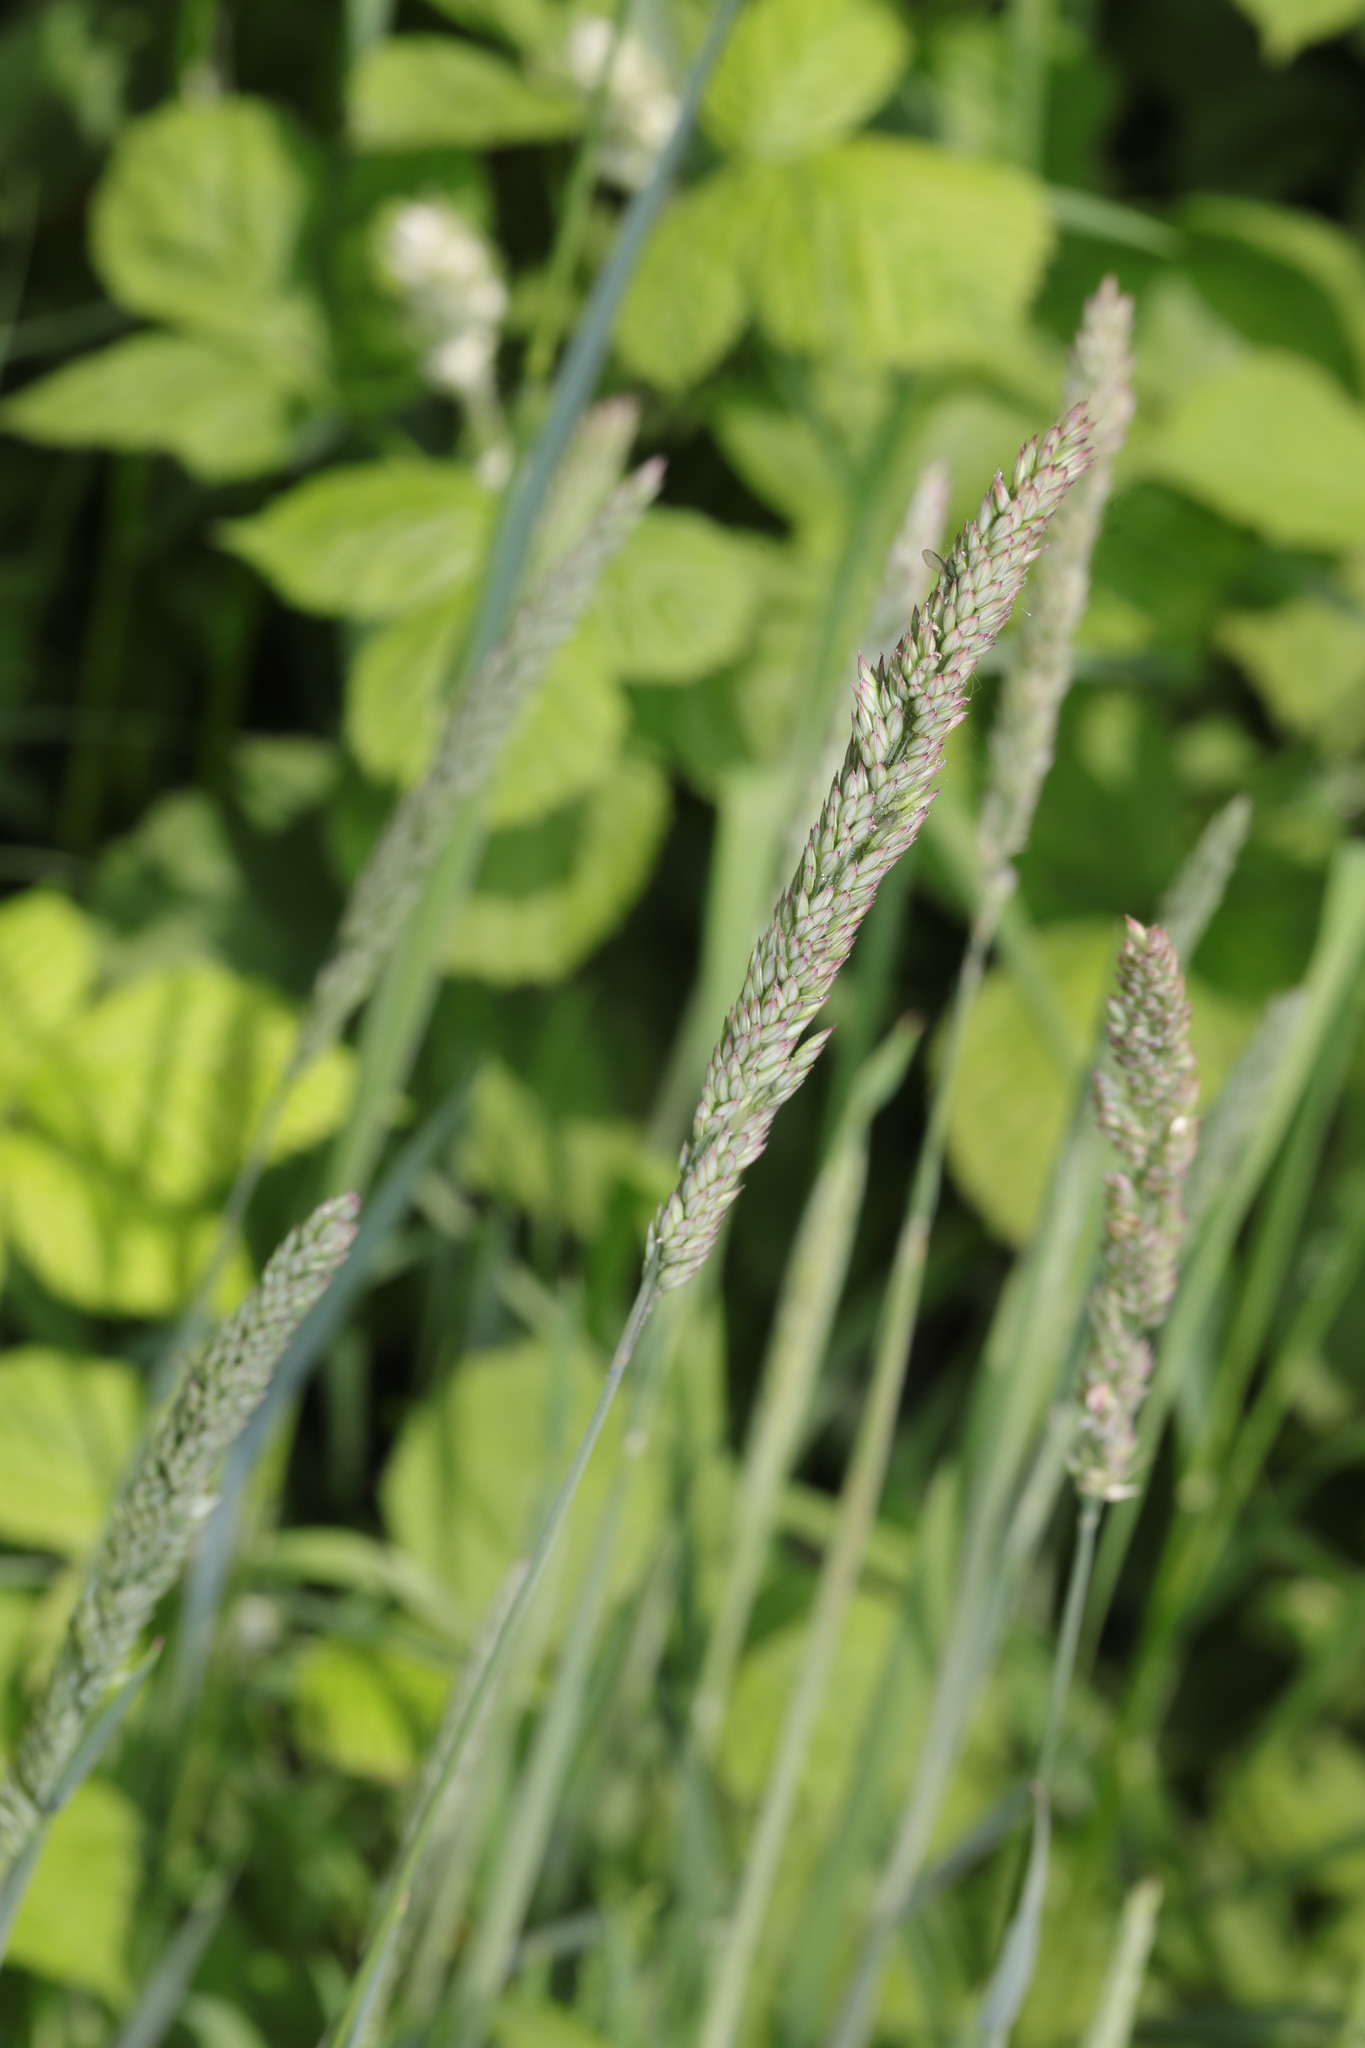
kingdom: Plantae
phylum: Tracheophyta
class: Liliopsida
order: Poales
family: Poaceae
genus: Holcus
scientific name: Holcus lanatus
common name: Yorkshire-fog
